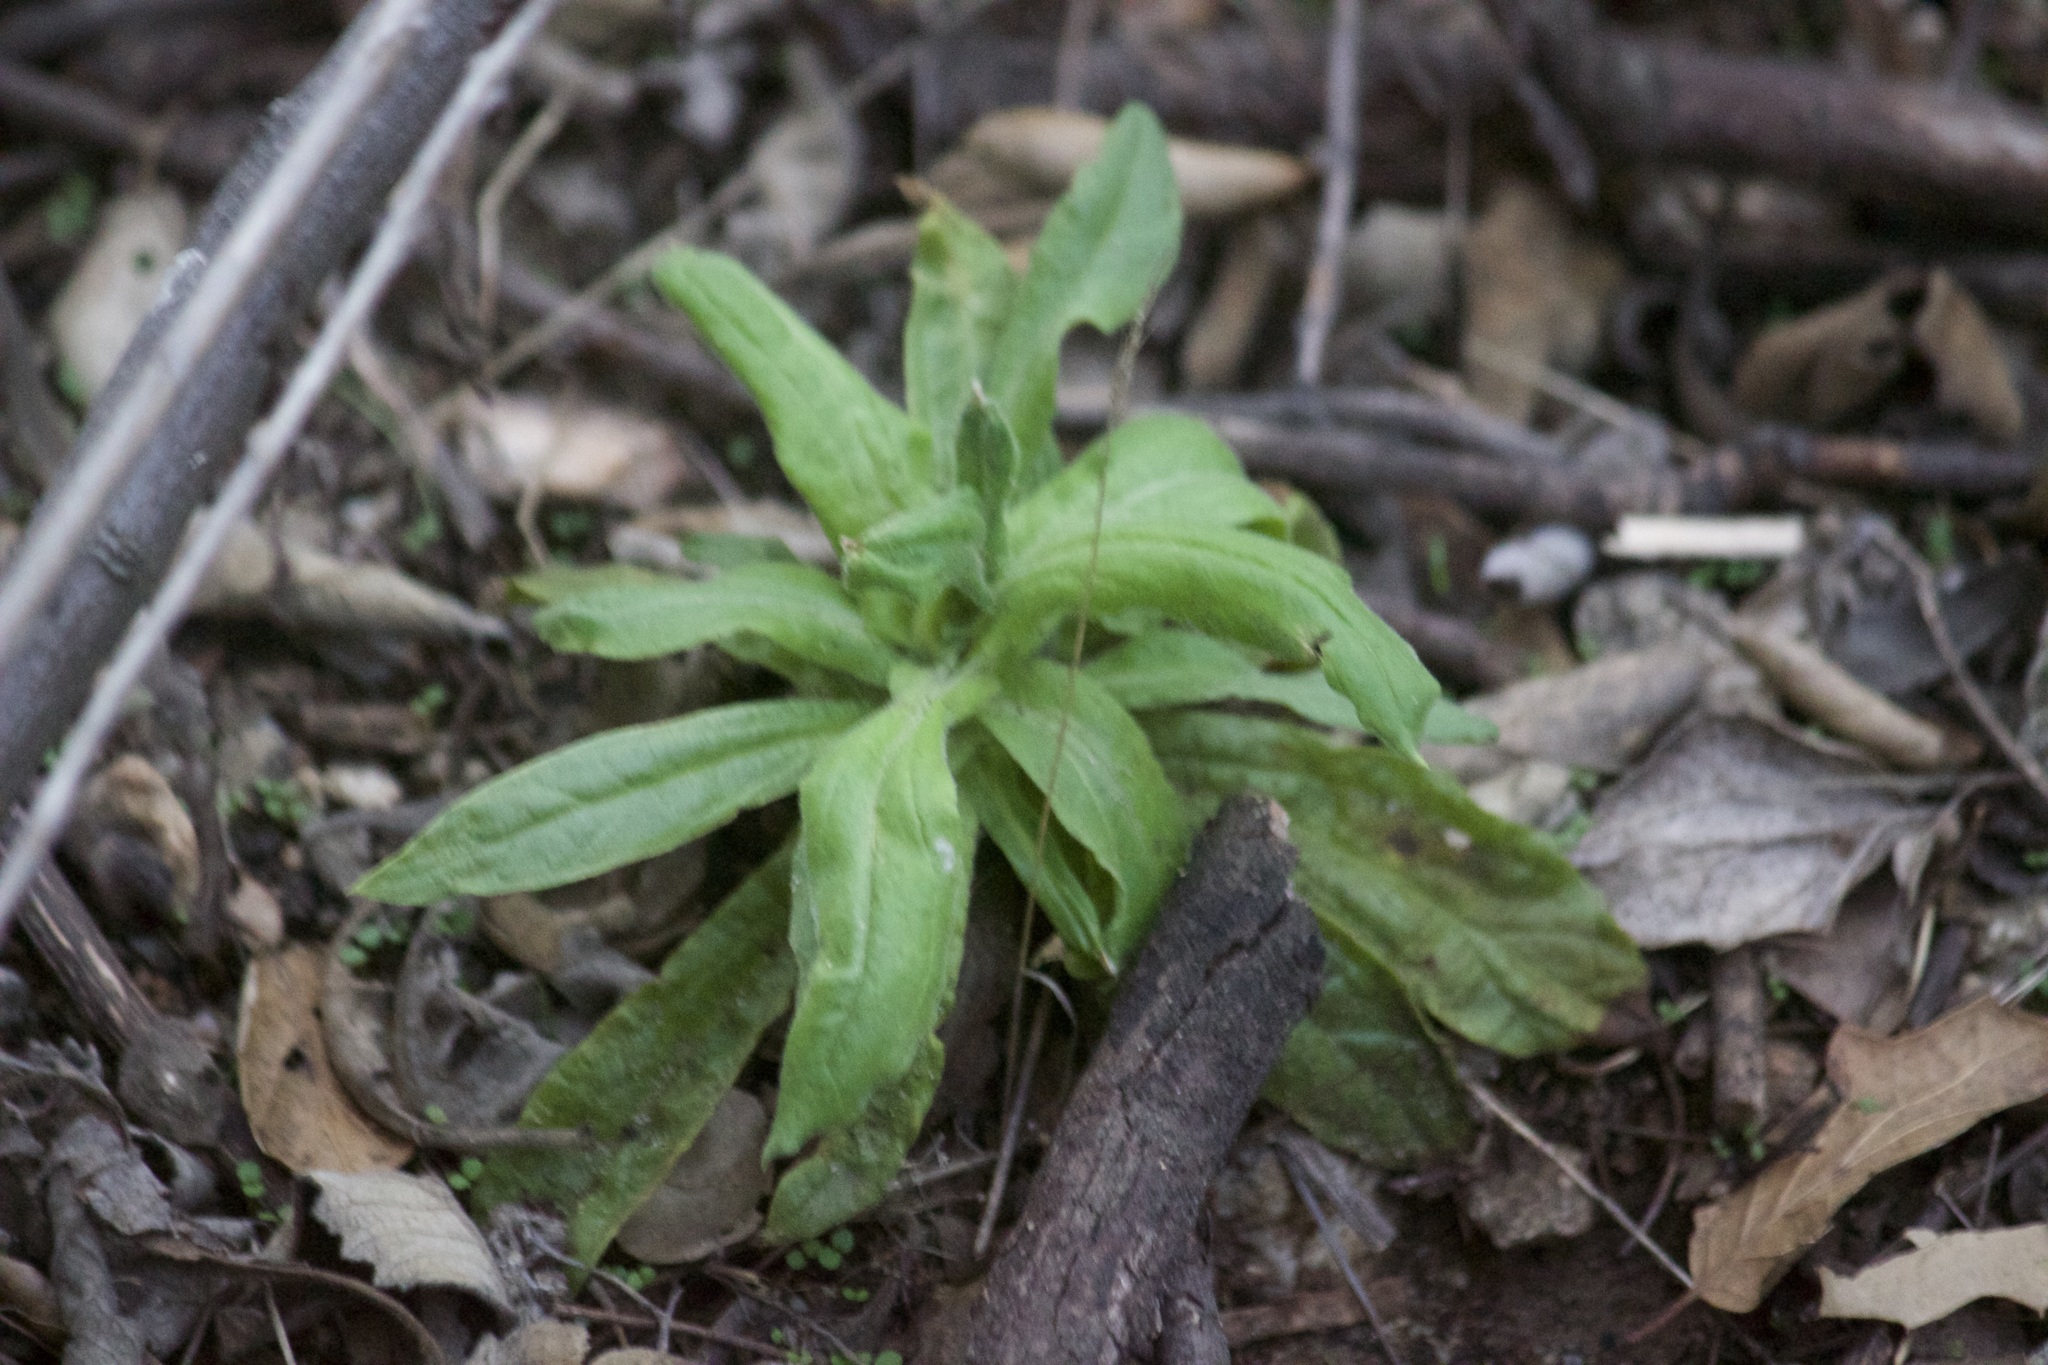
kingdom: Plantae
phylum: Tracheophyta
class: Magnoliopsida
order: Asterales
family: Asteraceae
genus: Pseudognaphalium
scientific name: Pseudognaphalium californicum
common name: California rabbit-tobacco
